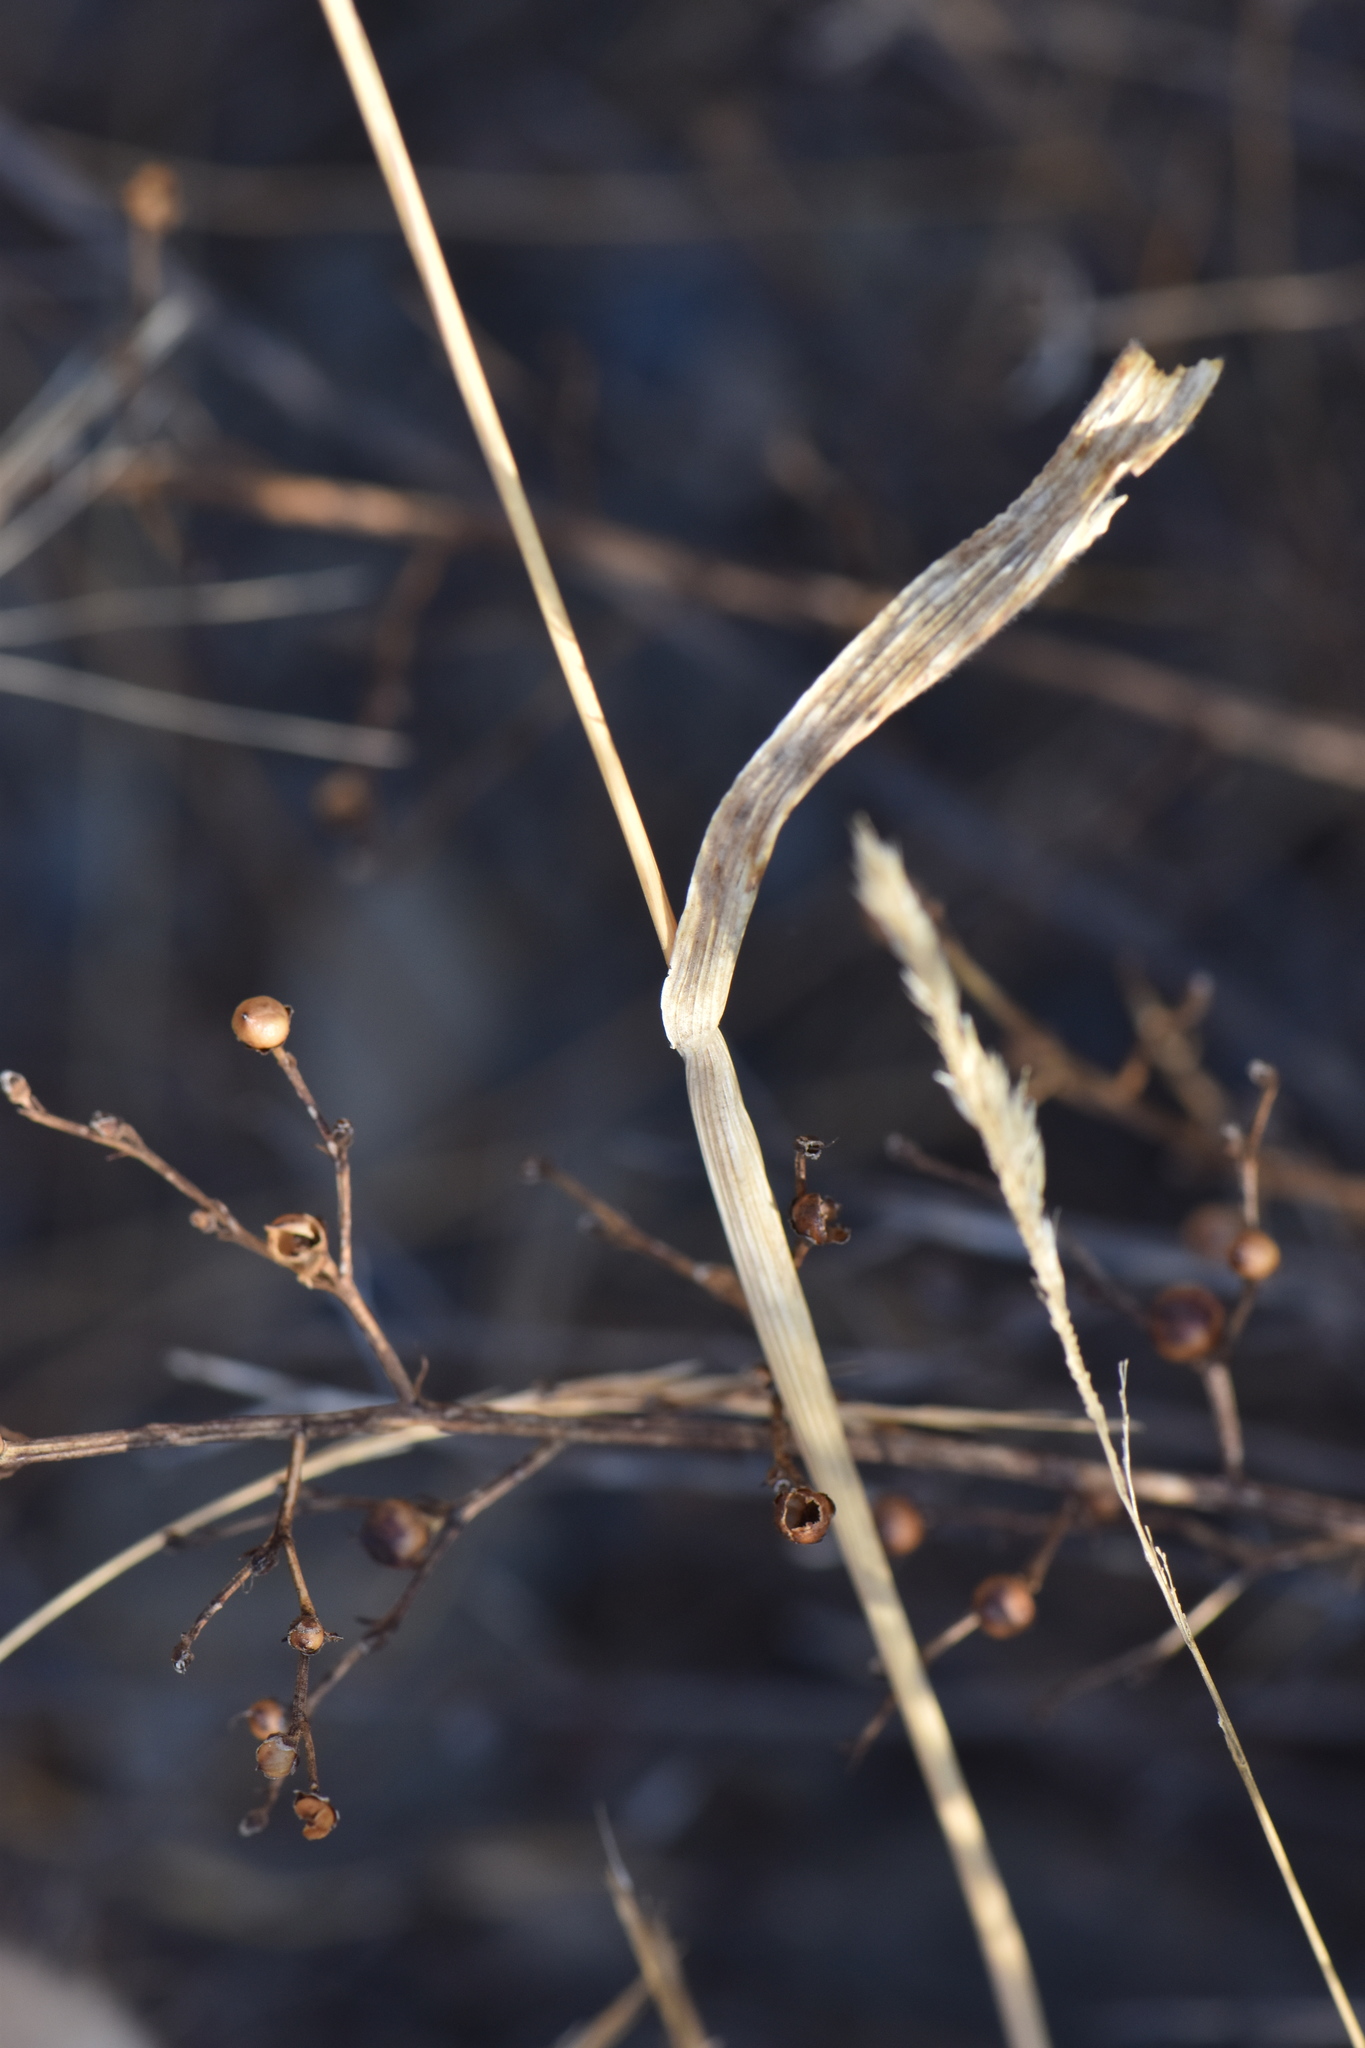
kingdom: Plantae
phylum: Tracheophyta
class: Liliopsida
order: Poales
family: Poaceae
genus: Lagurus
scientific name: Lagurus ovatus
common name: Hare's-tail
